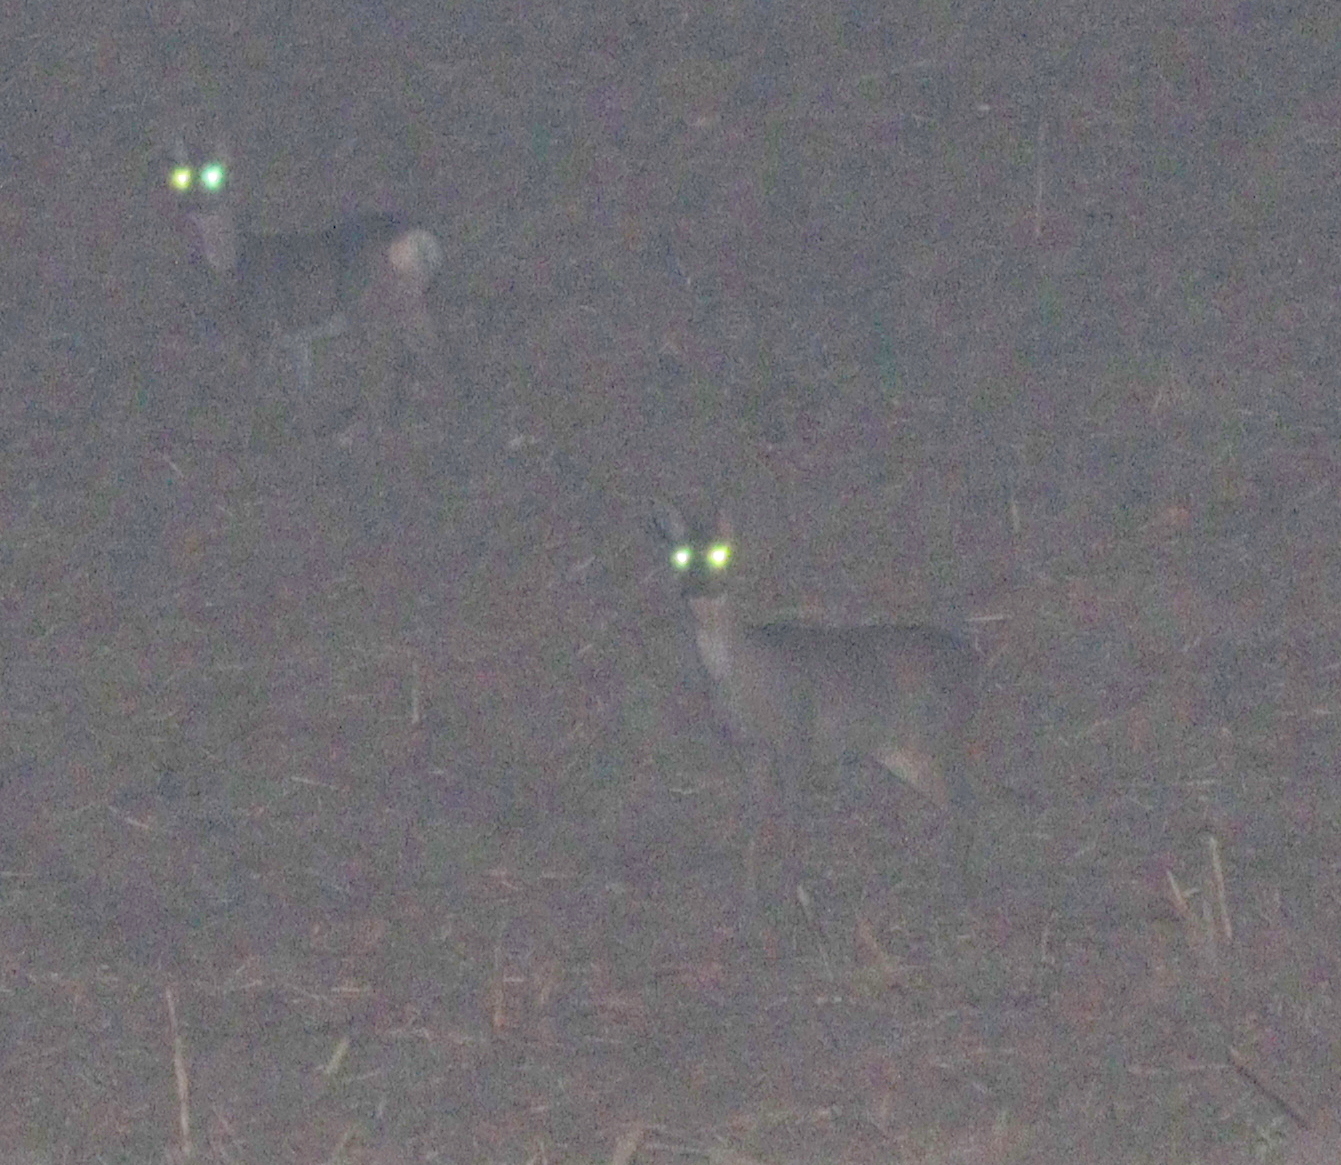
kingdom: Animalia
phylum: Chordata
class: Mammalia
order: Artiodactyla
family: Cervidae
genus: Capreolus
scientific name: Capreolus capreolus
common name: Western roe deer
